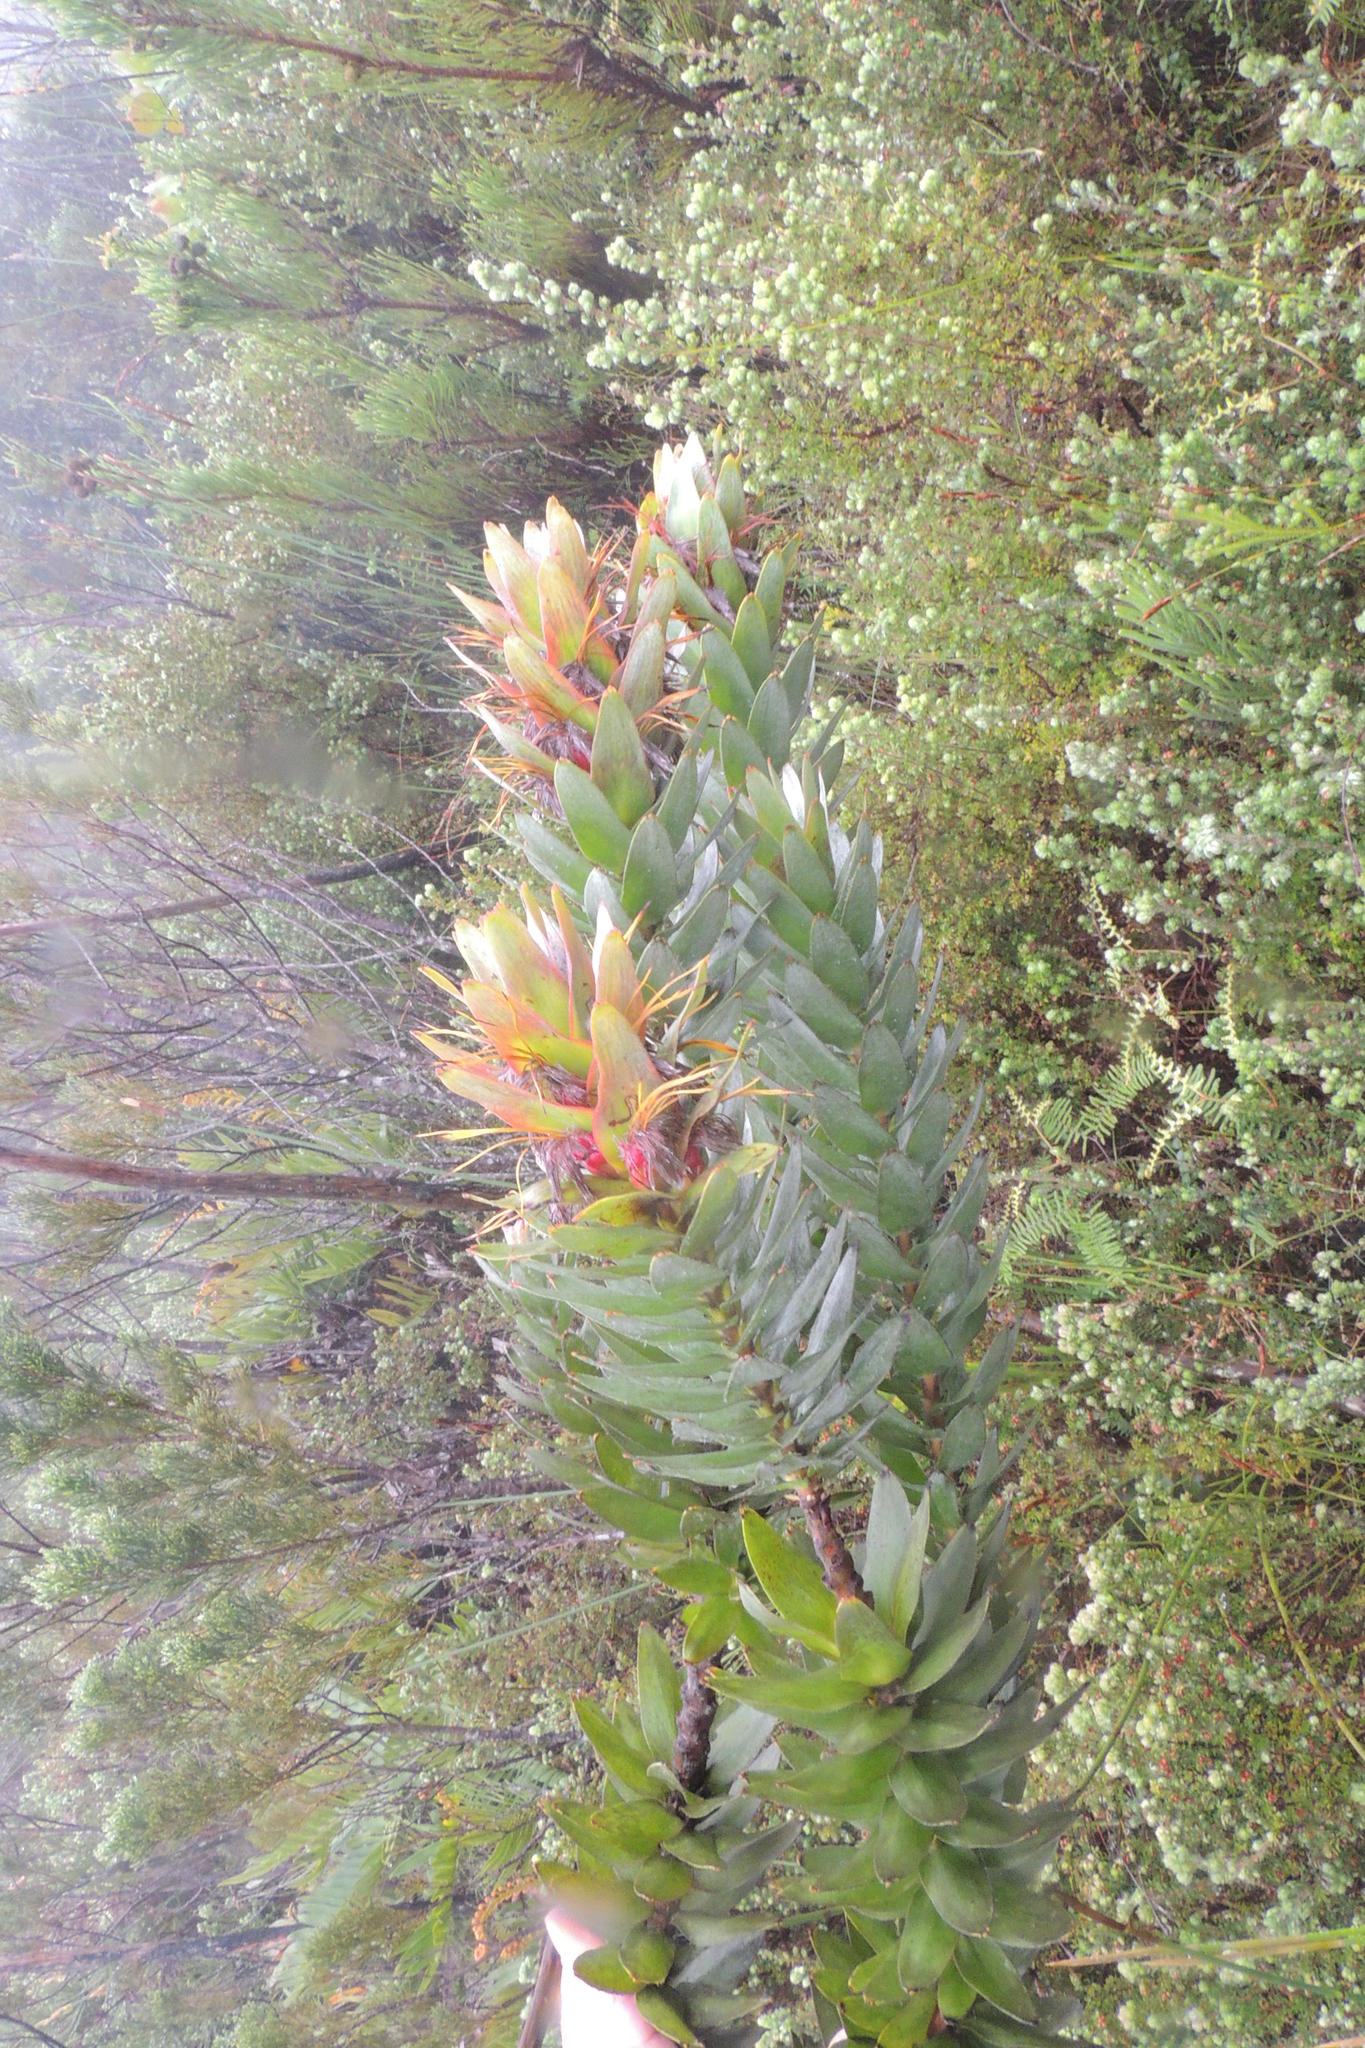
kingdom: Plantae
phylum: Tracheophyta
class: Magnoliopsida
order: Proteales
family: Proteaceae
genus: Mimetes
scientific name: Mimetes splendidus
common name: Splendid pagoda
